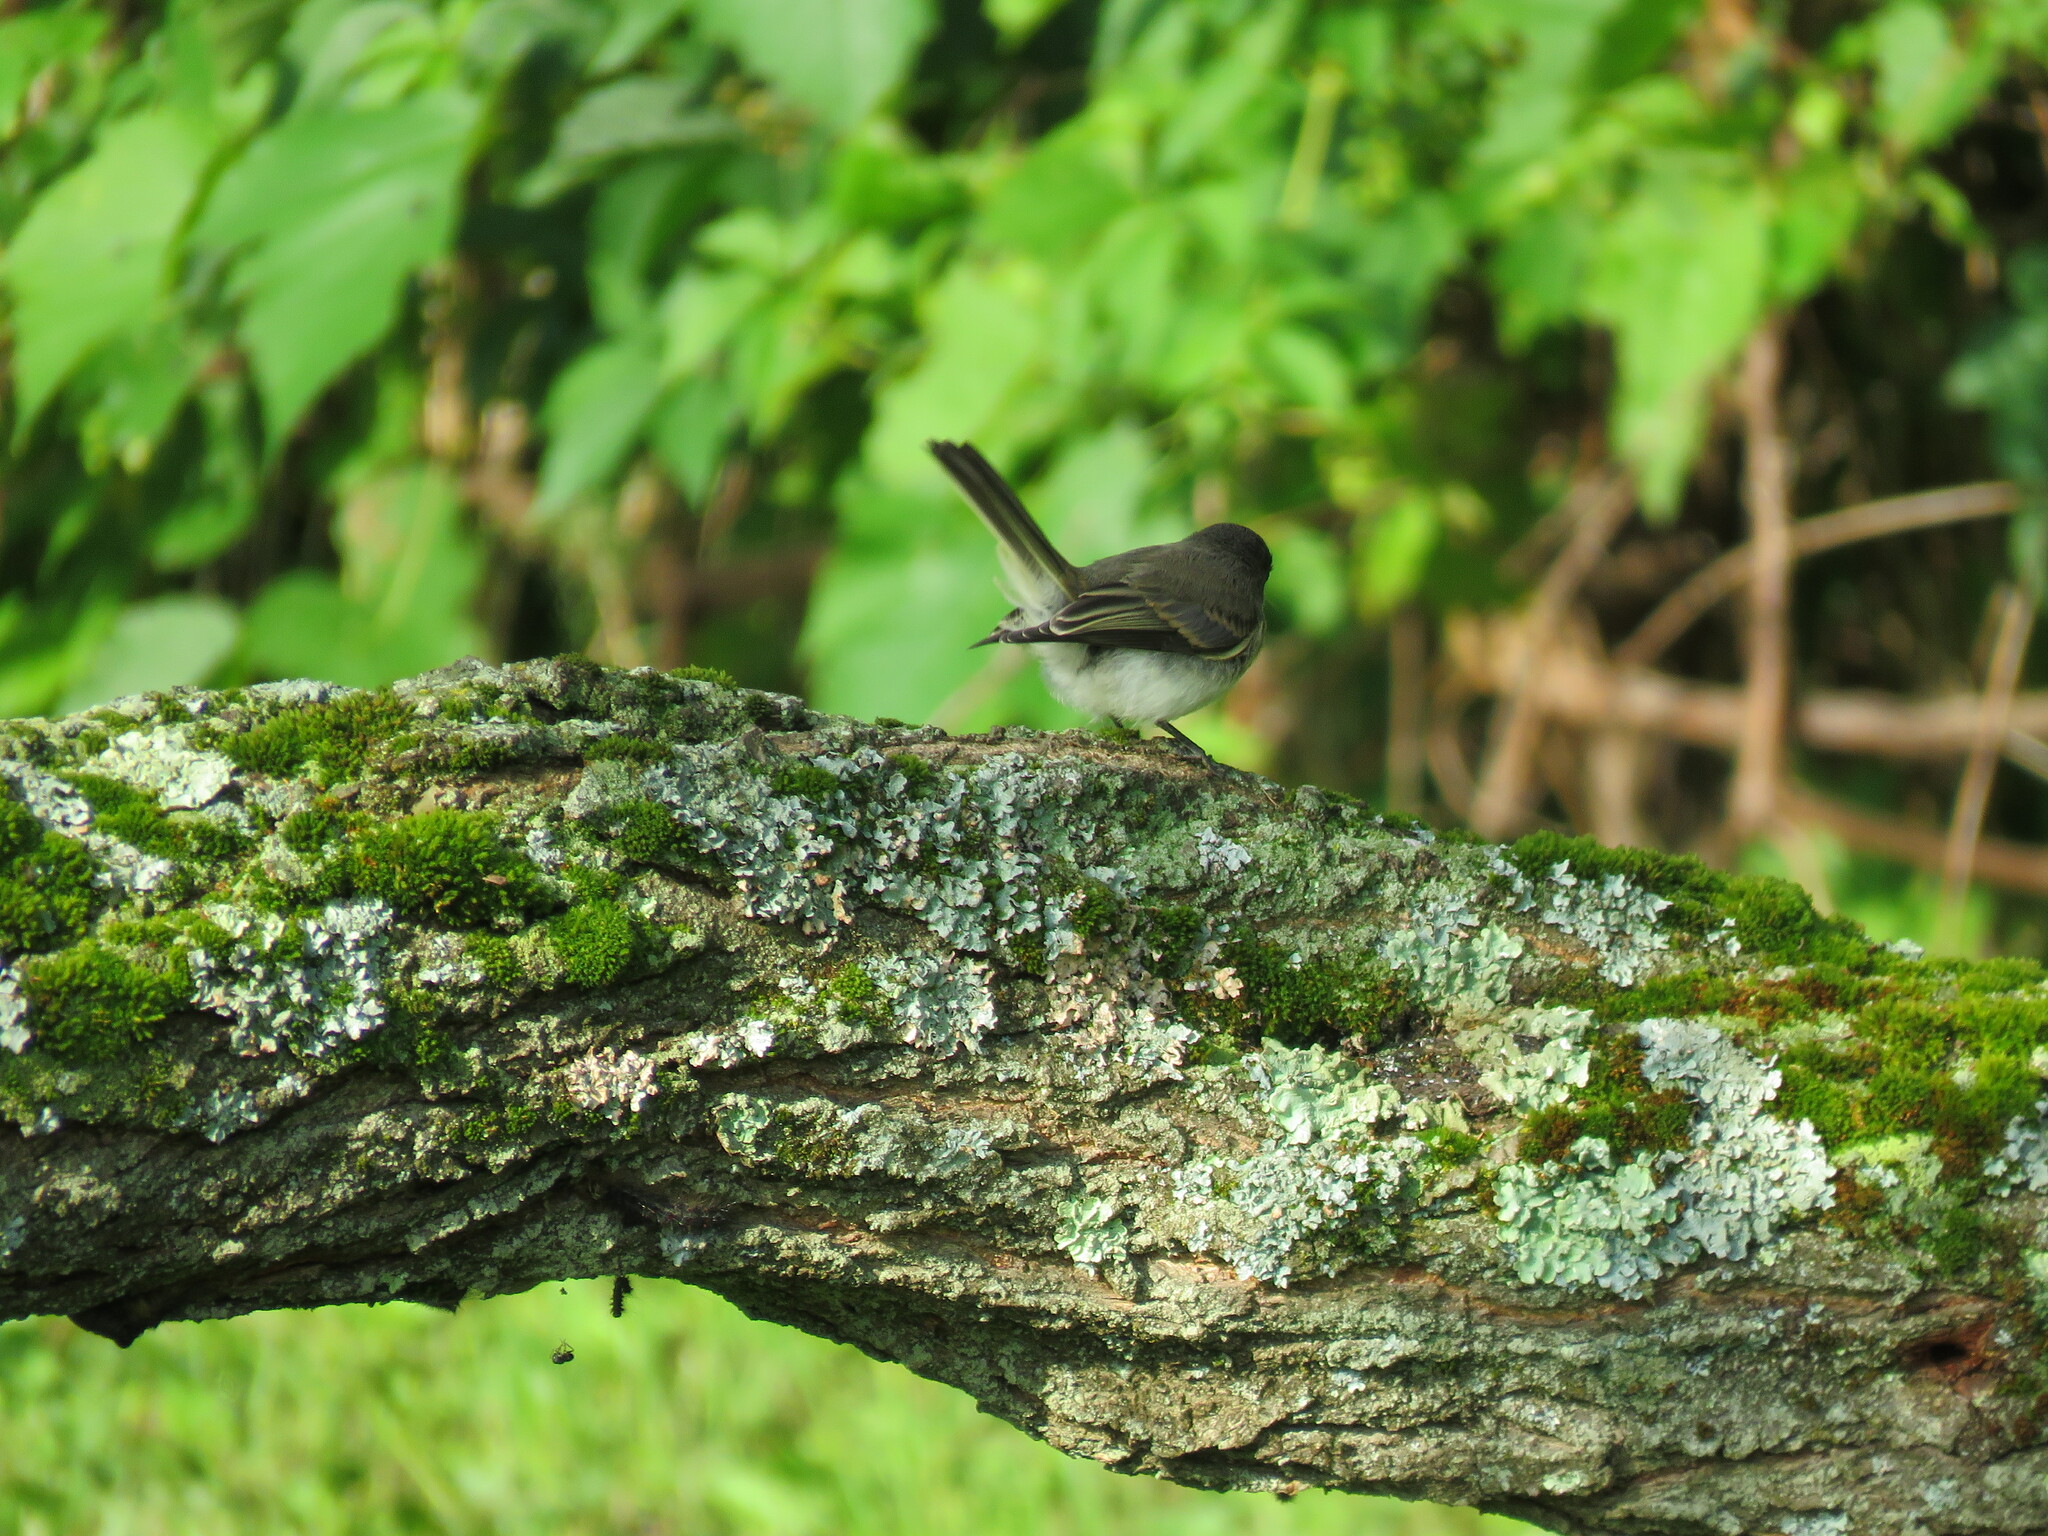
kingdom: Animalia
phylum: Chordata
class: Aves
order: Passeriformes
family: Tyrannidae
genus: Sayornis
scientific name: Sayornis phoebe
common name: Eastern phoebe
